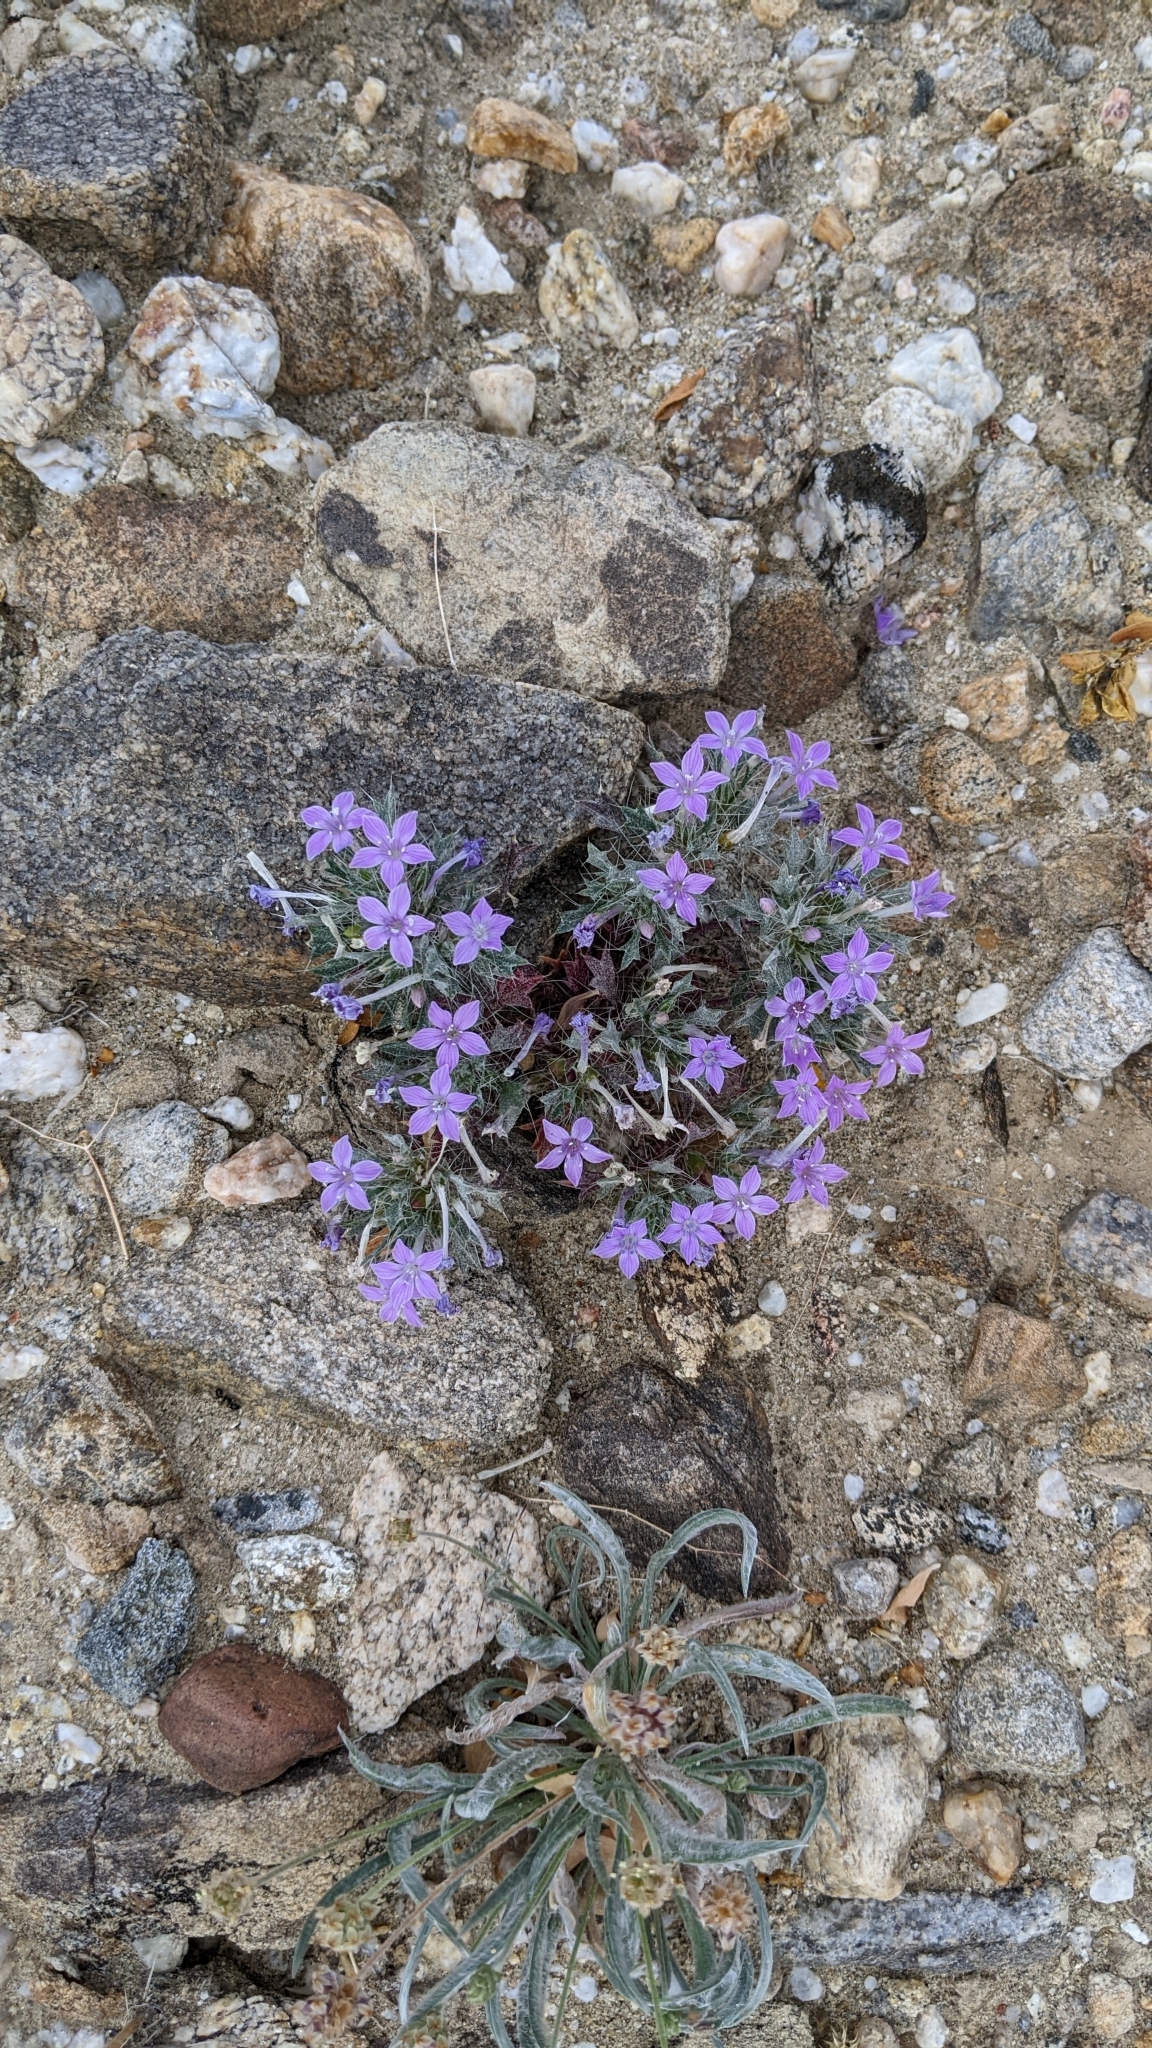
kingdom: Plantae
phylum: Tracheophyta
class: Magnoliopsida
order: Ericales
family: Polemoniaceae
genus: Langloisia
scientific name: Langloisia setosissima
